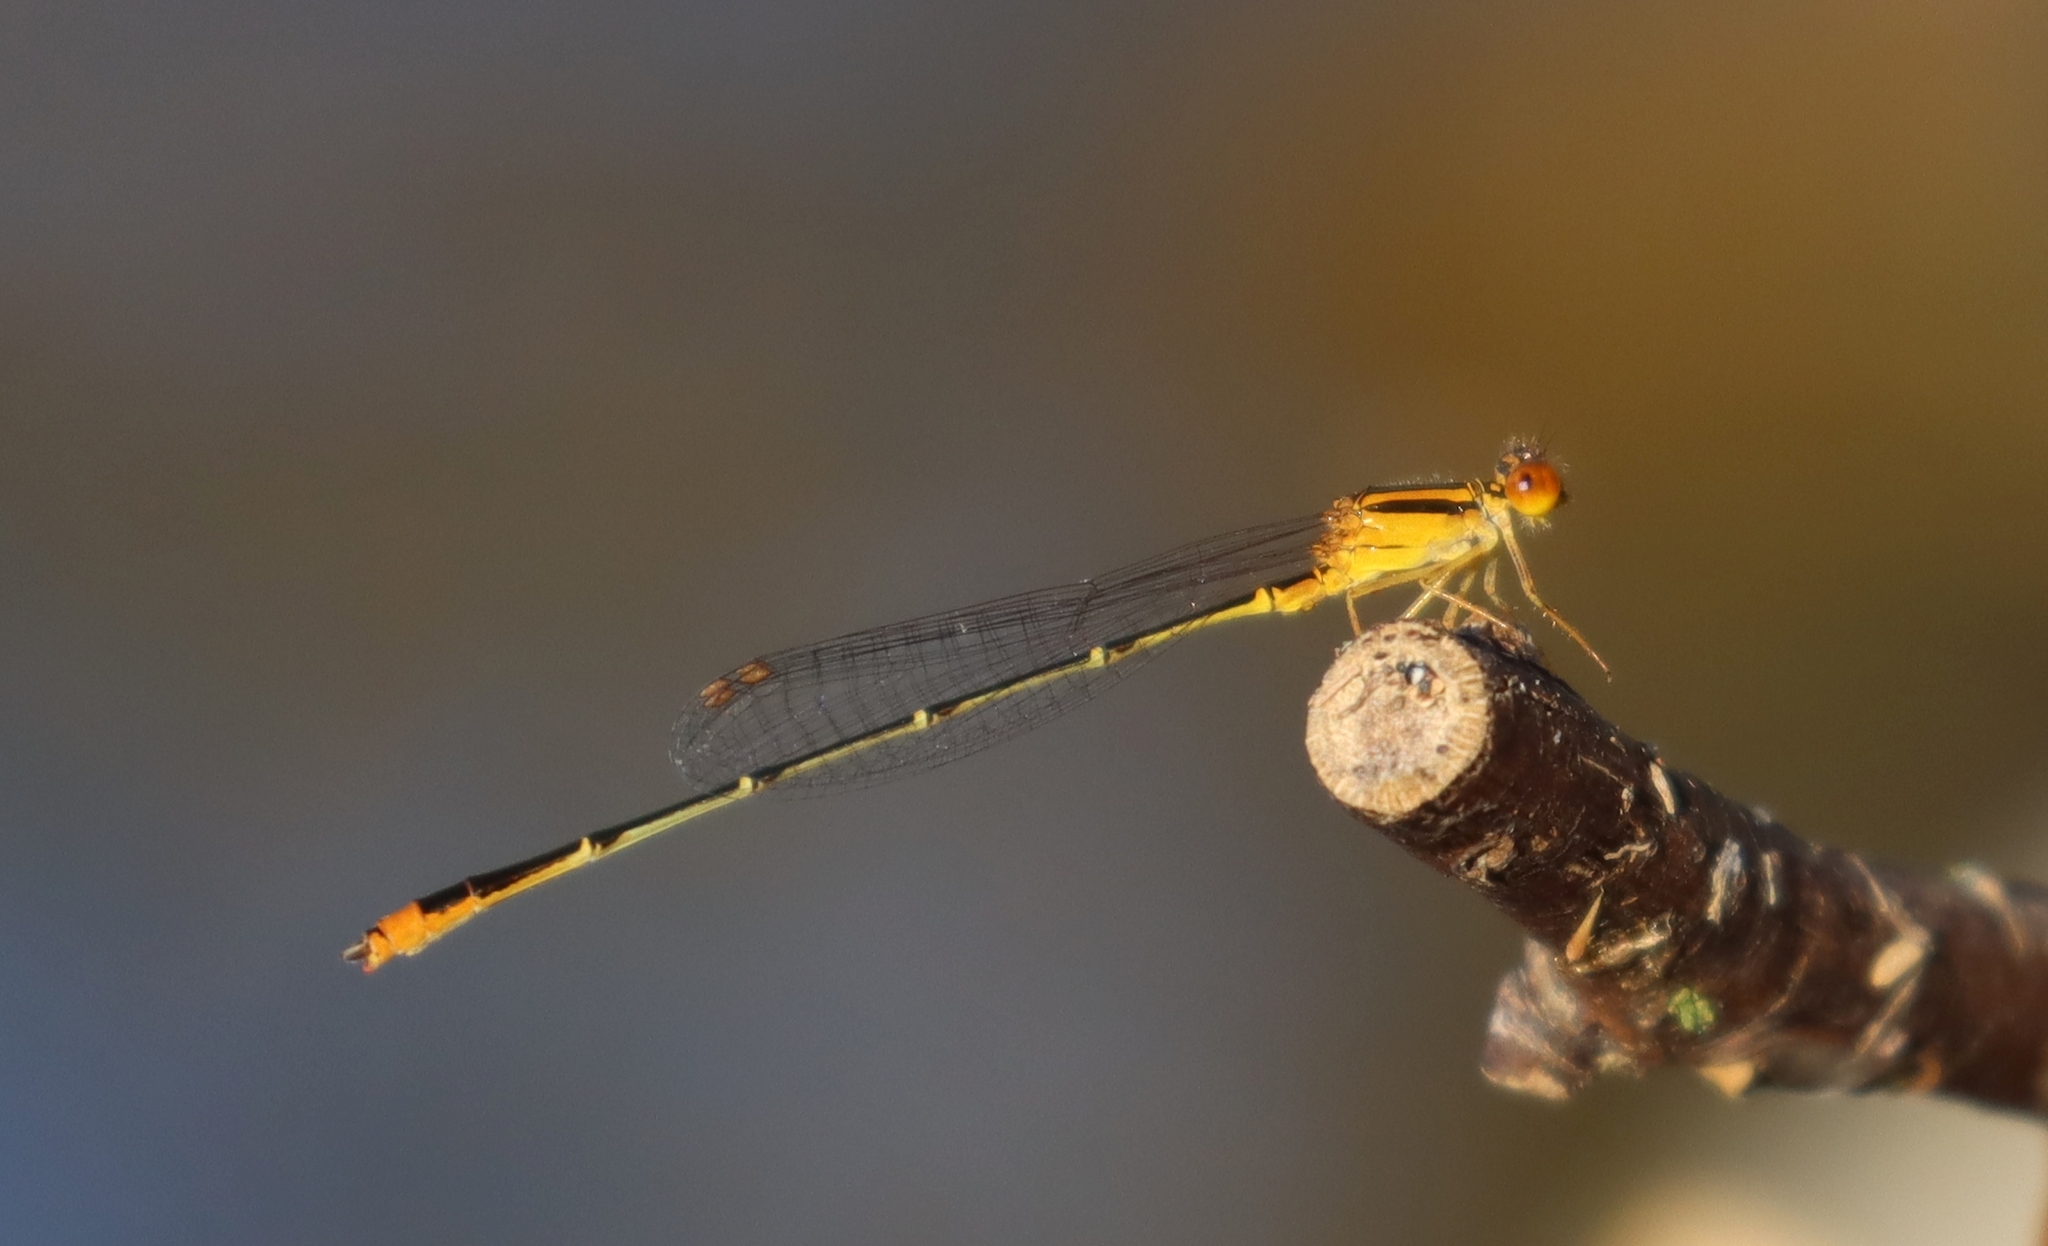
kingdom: Animalia
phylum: Arthropoda
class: Insecta
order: Odonata
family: Coenagrionidae
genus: Enallagma
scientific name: Enallagma signatum
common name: Orange bluet
